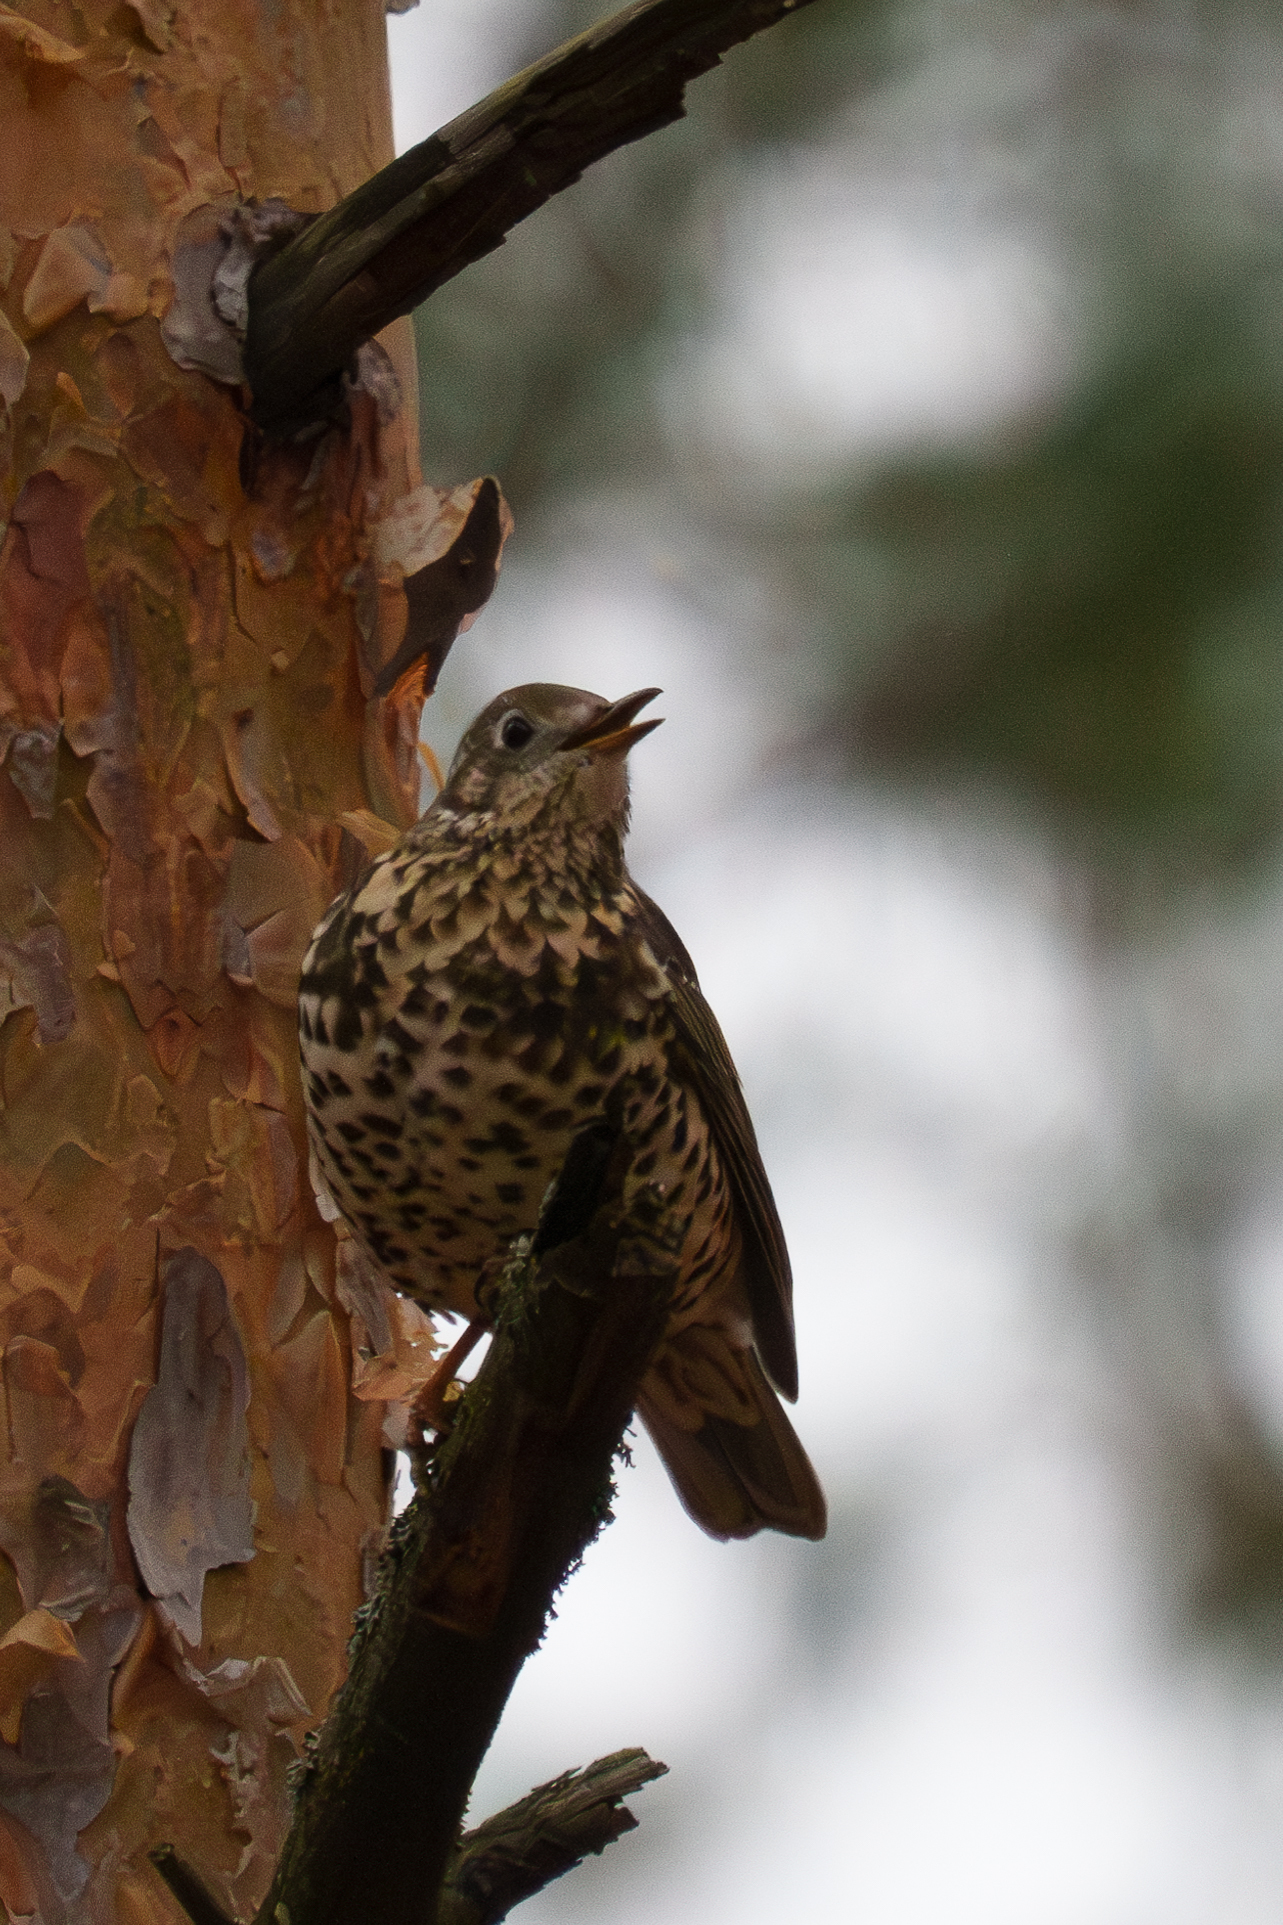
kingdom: Animalia
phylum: Chordata
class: Aves
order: Passeriformes
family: Turdidae
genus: Turdus
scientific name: Turdus viscivorus
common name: Mistle thrush
